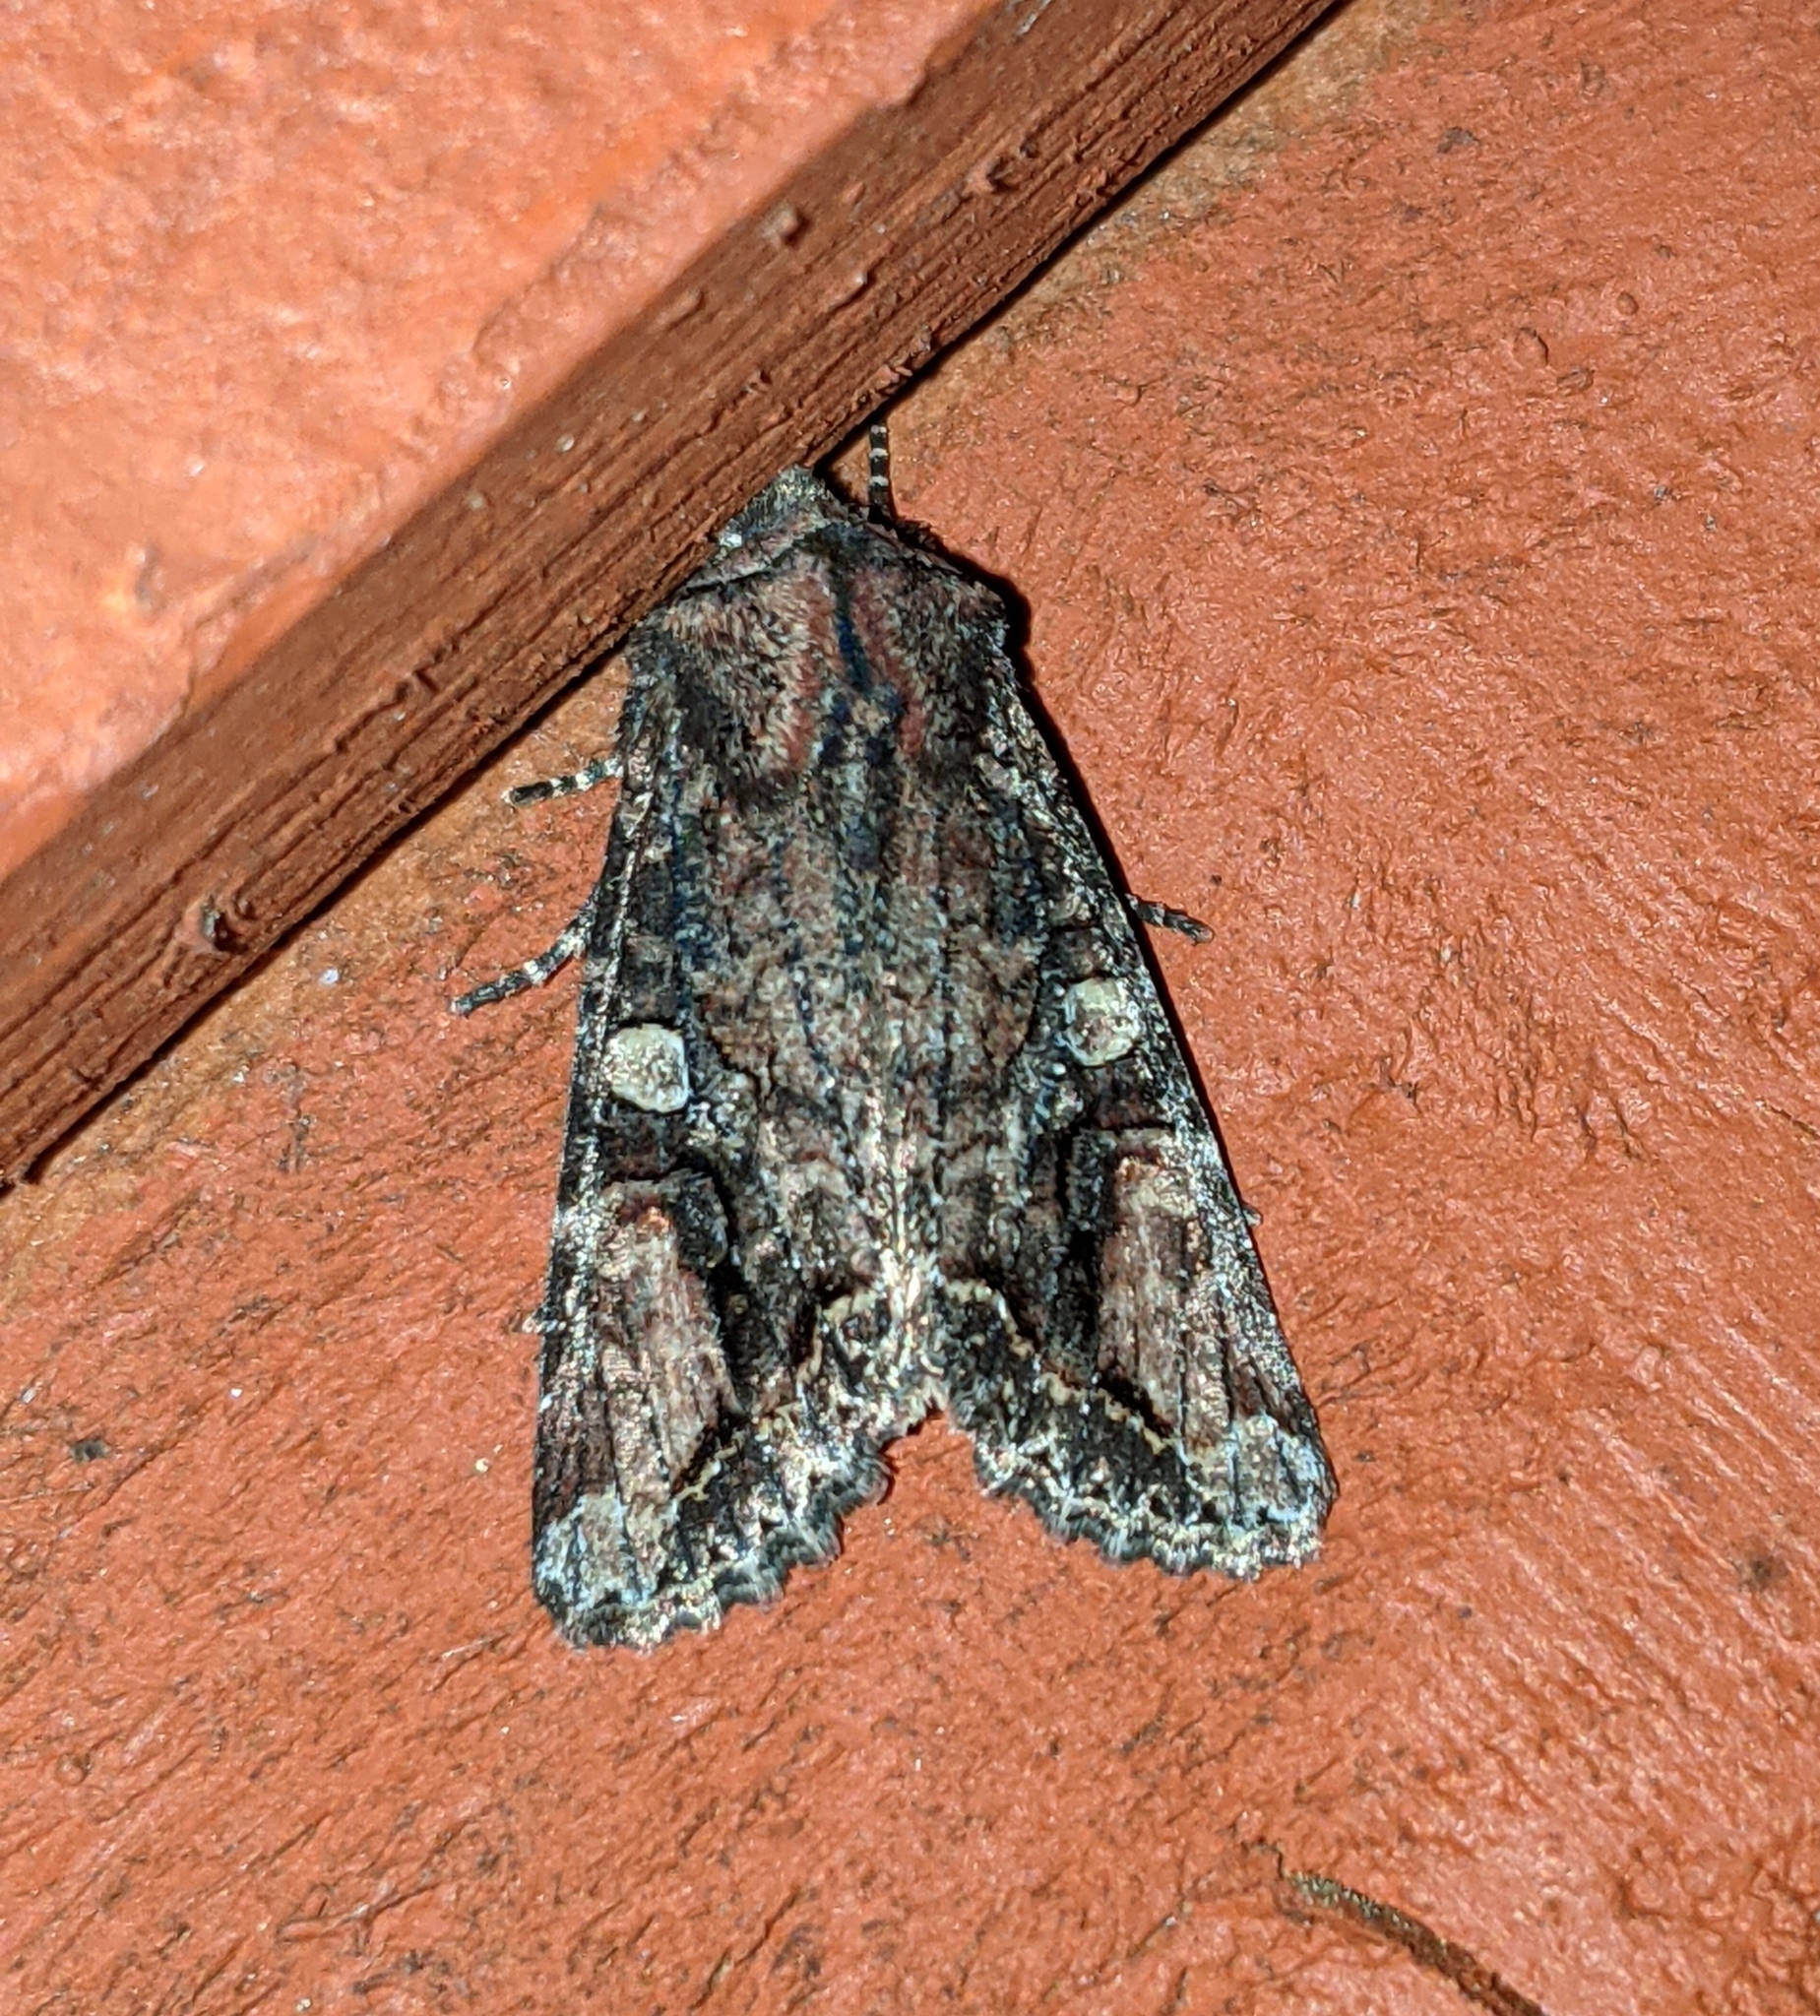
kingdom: Animalia
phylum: Arthropoda
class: Insecta
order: Lepidoptera
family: Noctuidae
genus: Egira
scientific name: Egira perlubens
